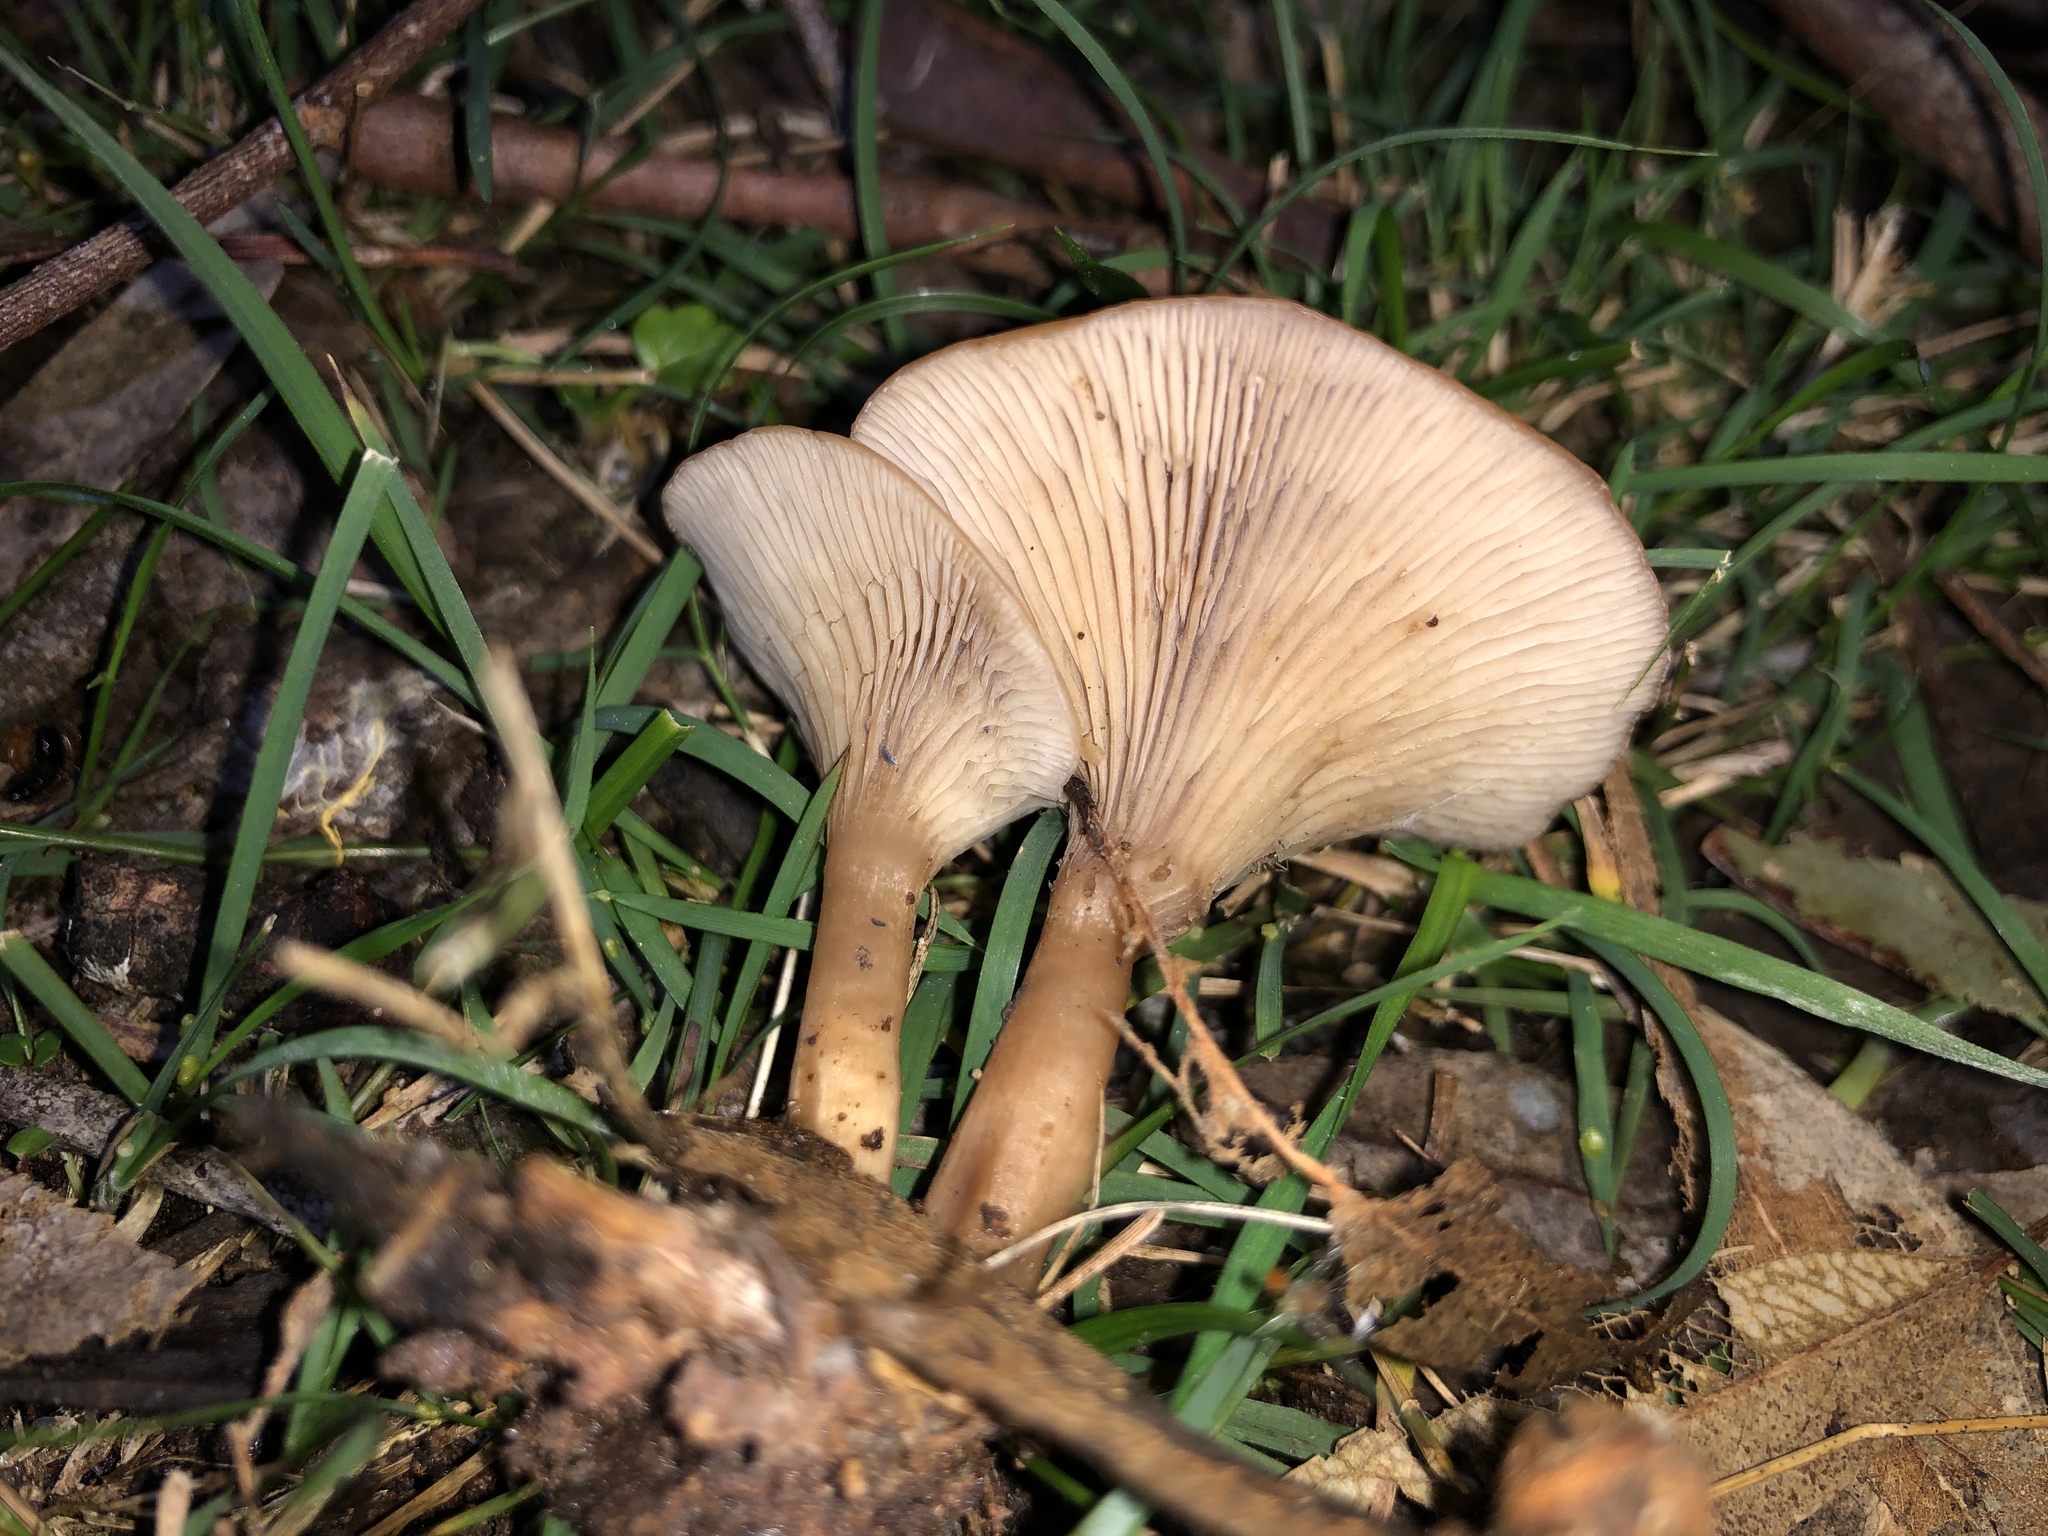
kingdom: Fungi
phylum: Basidiomycota
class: Agaricomycetes
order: Agaricales
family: Tricholomataceae
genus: Singerocybe
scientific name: Singerocybe clitocyboides
